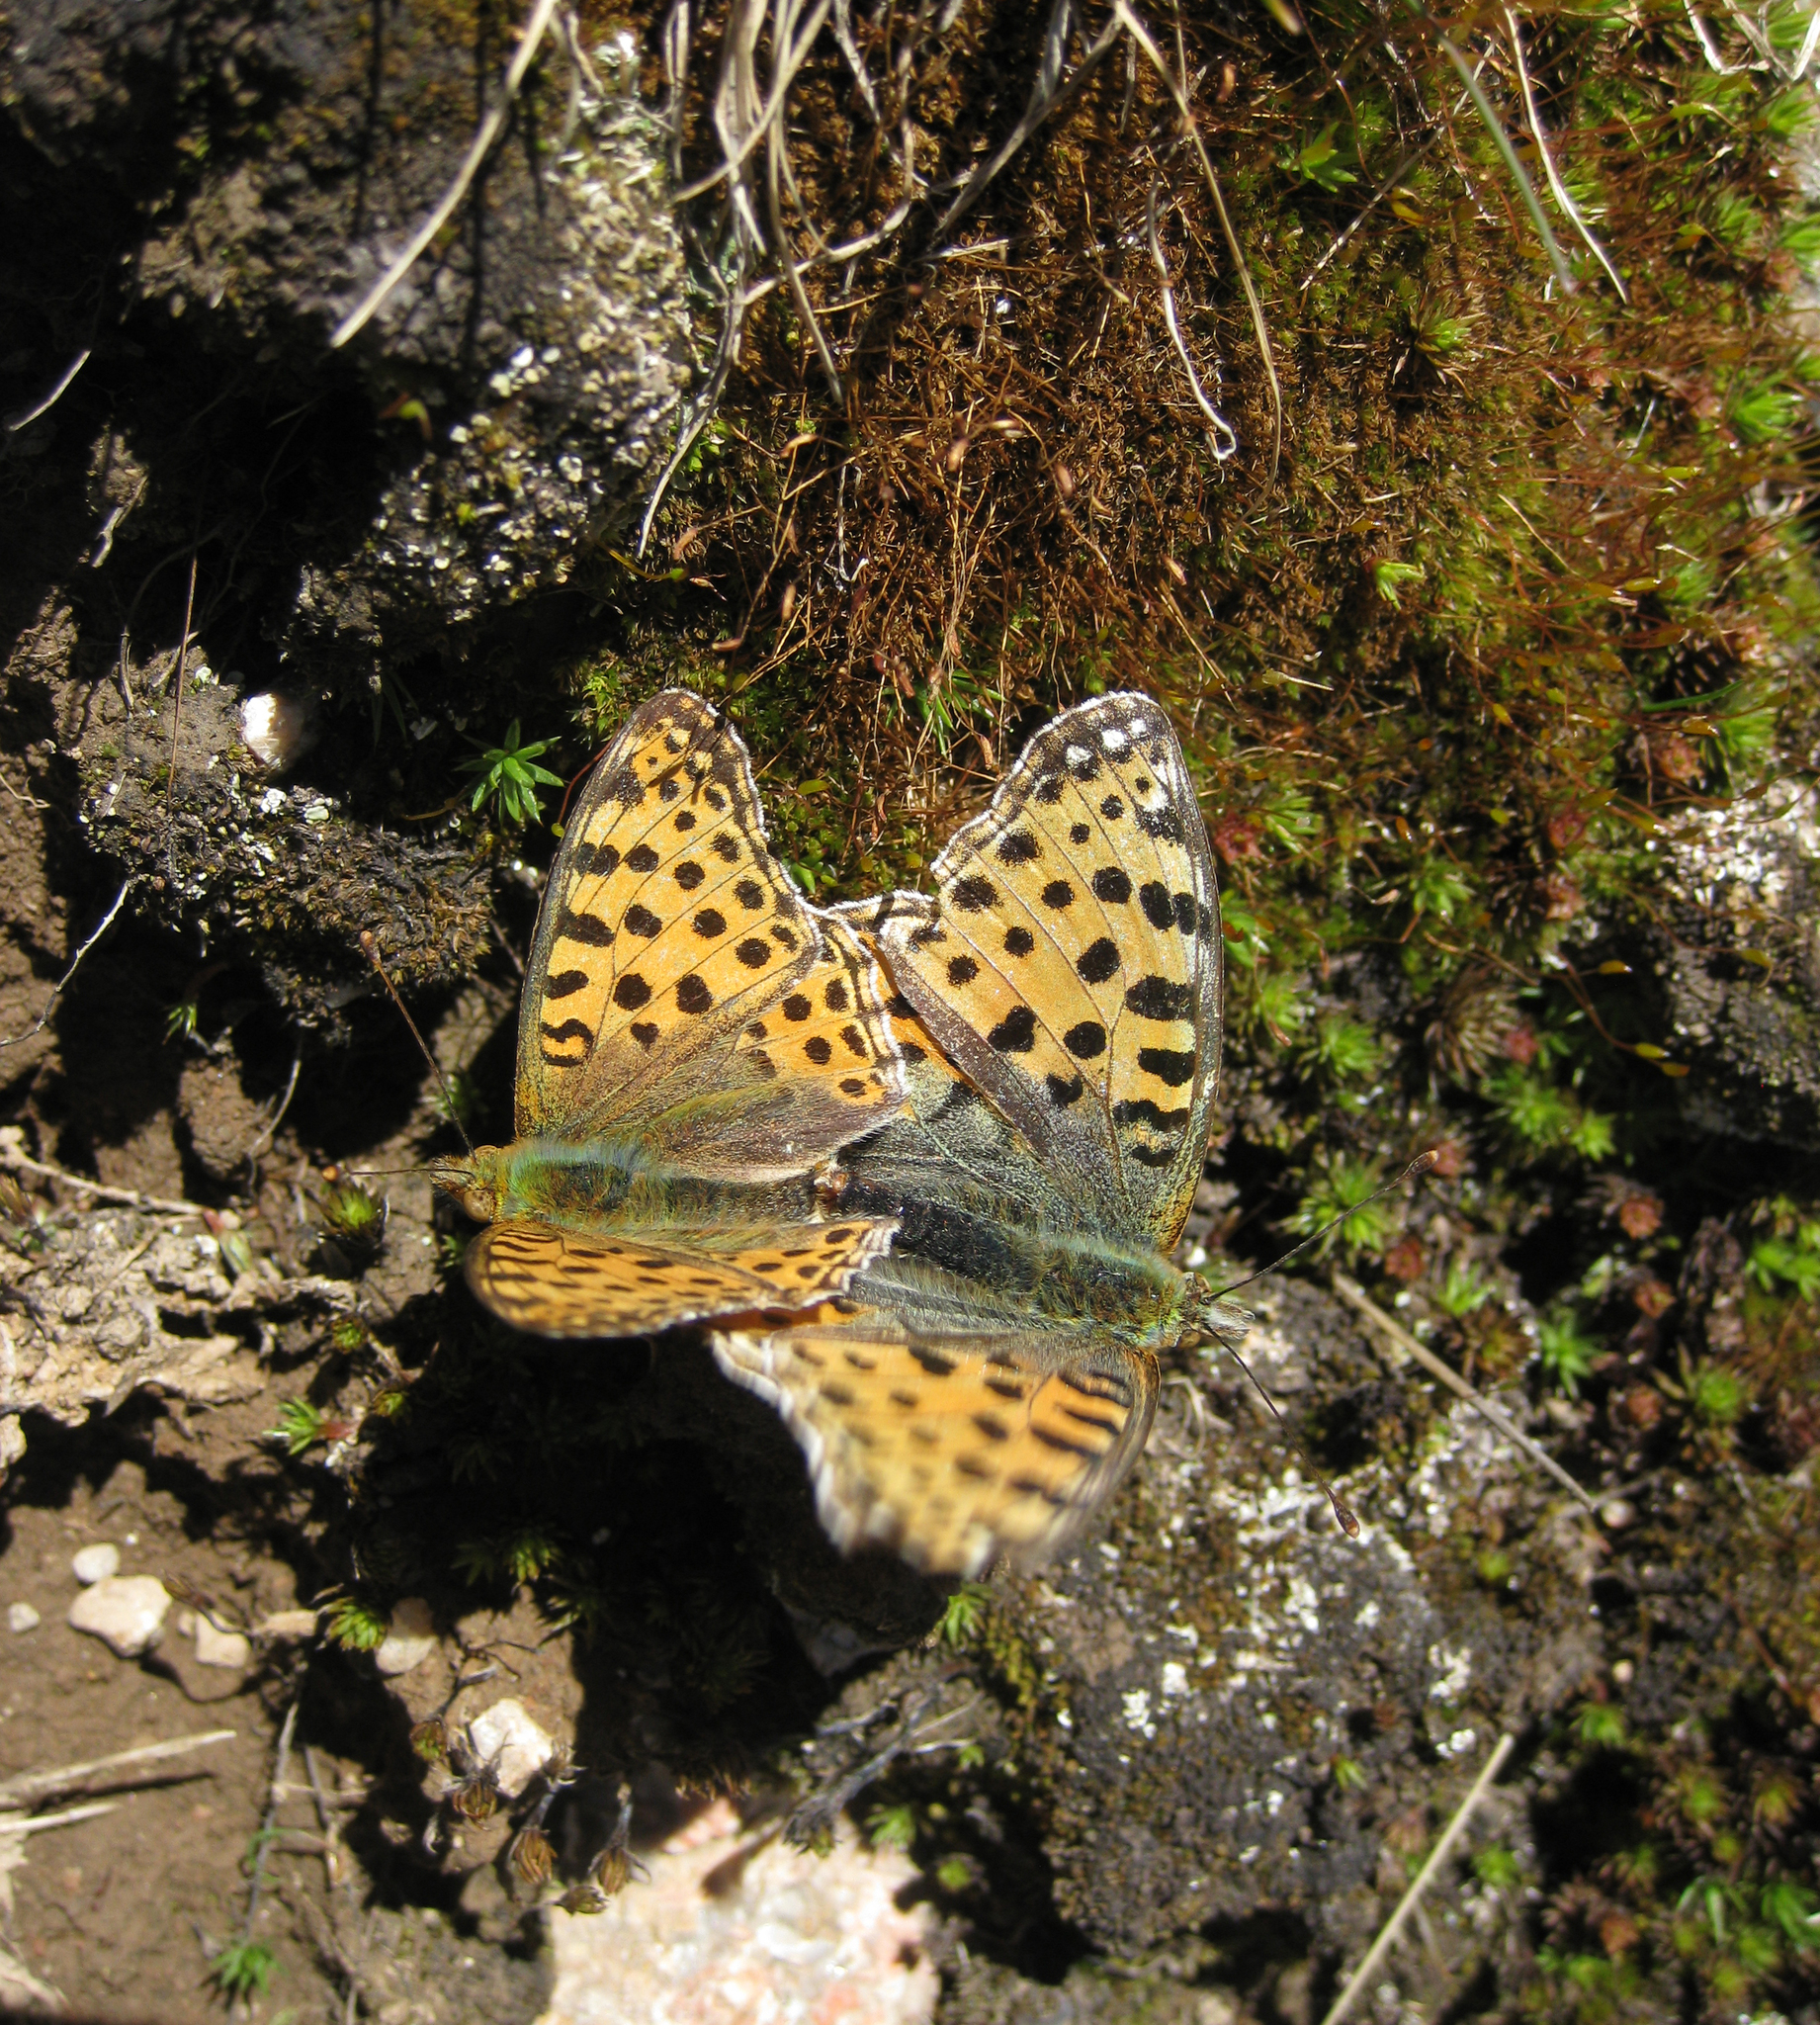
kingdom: Animalia
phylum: Arthropoda
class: Insecta
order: Lepidoptera
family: Nymphalidae
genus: Issoria
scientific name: Issoria lathonia
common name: Queen of spain fritillary
